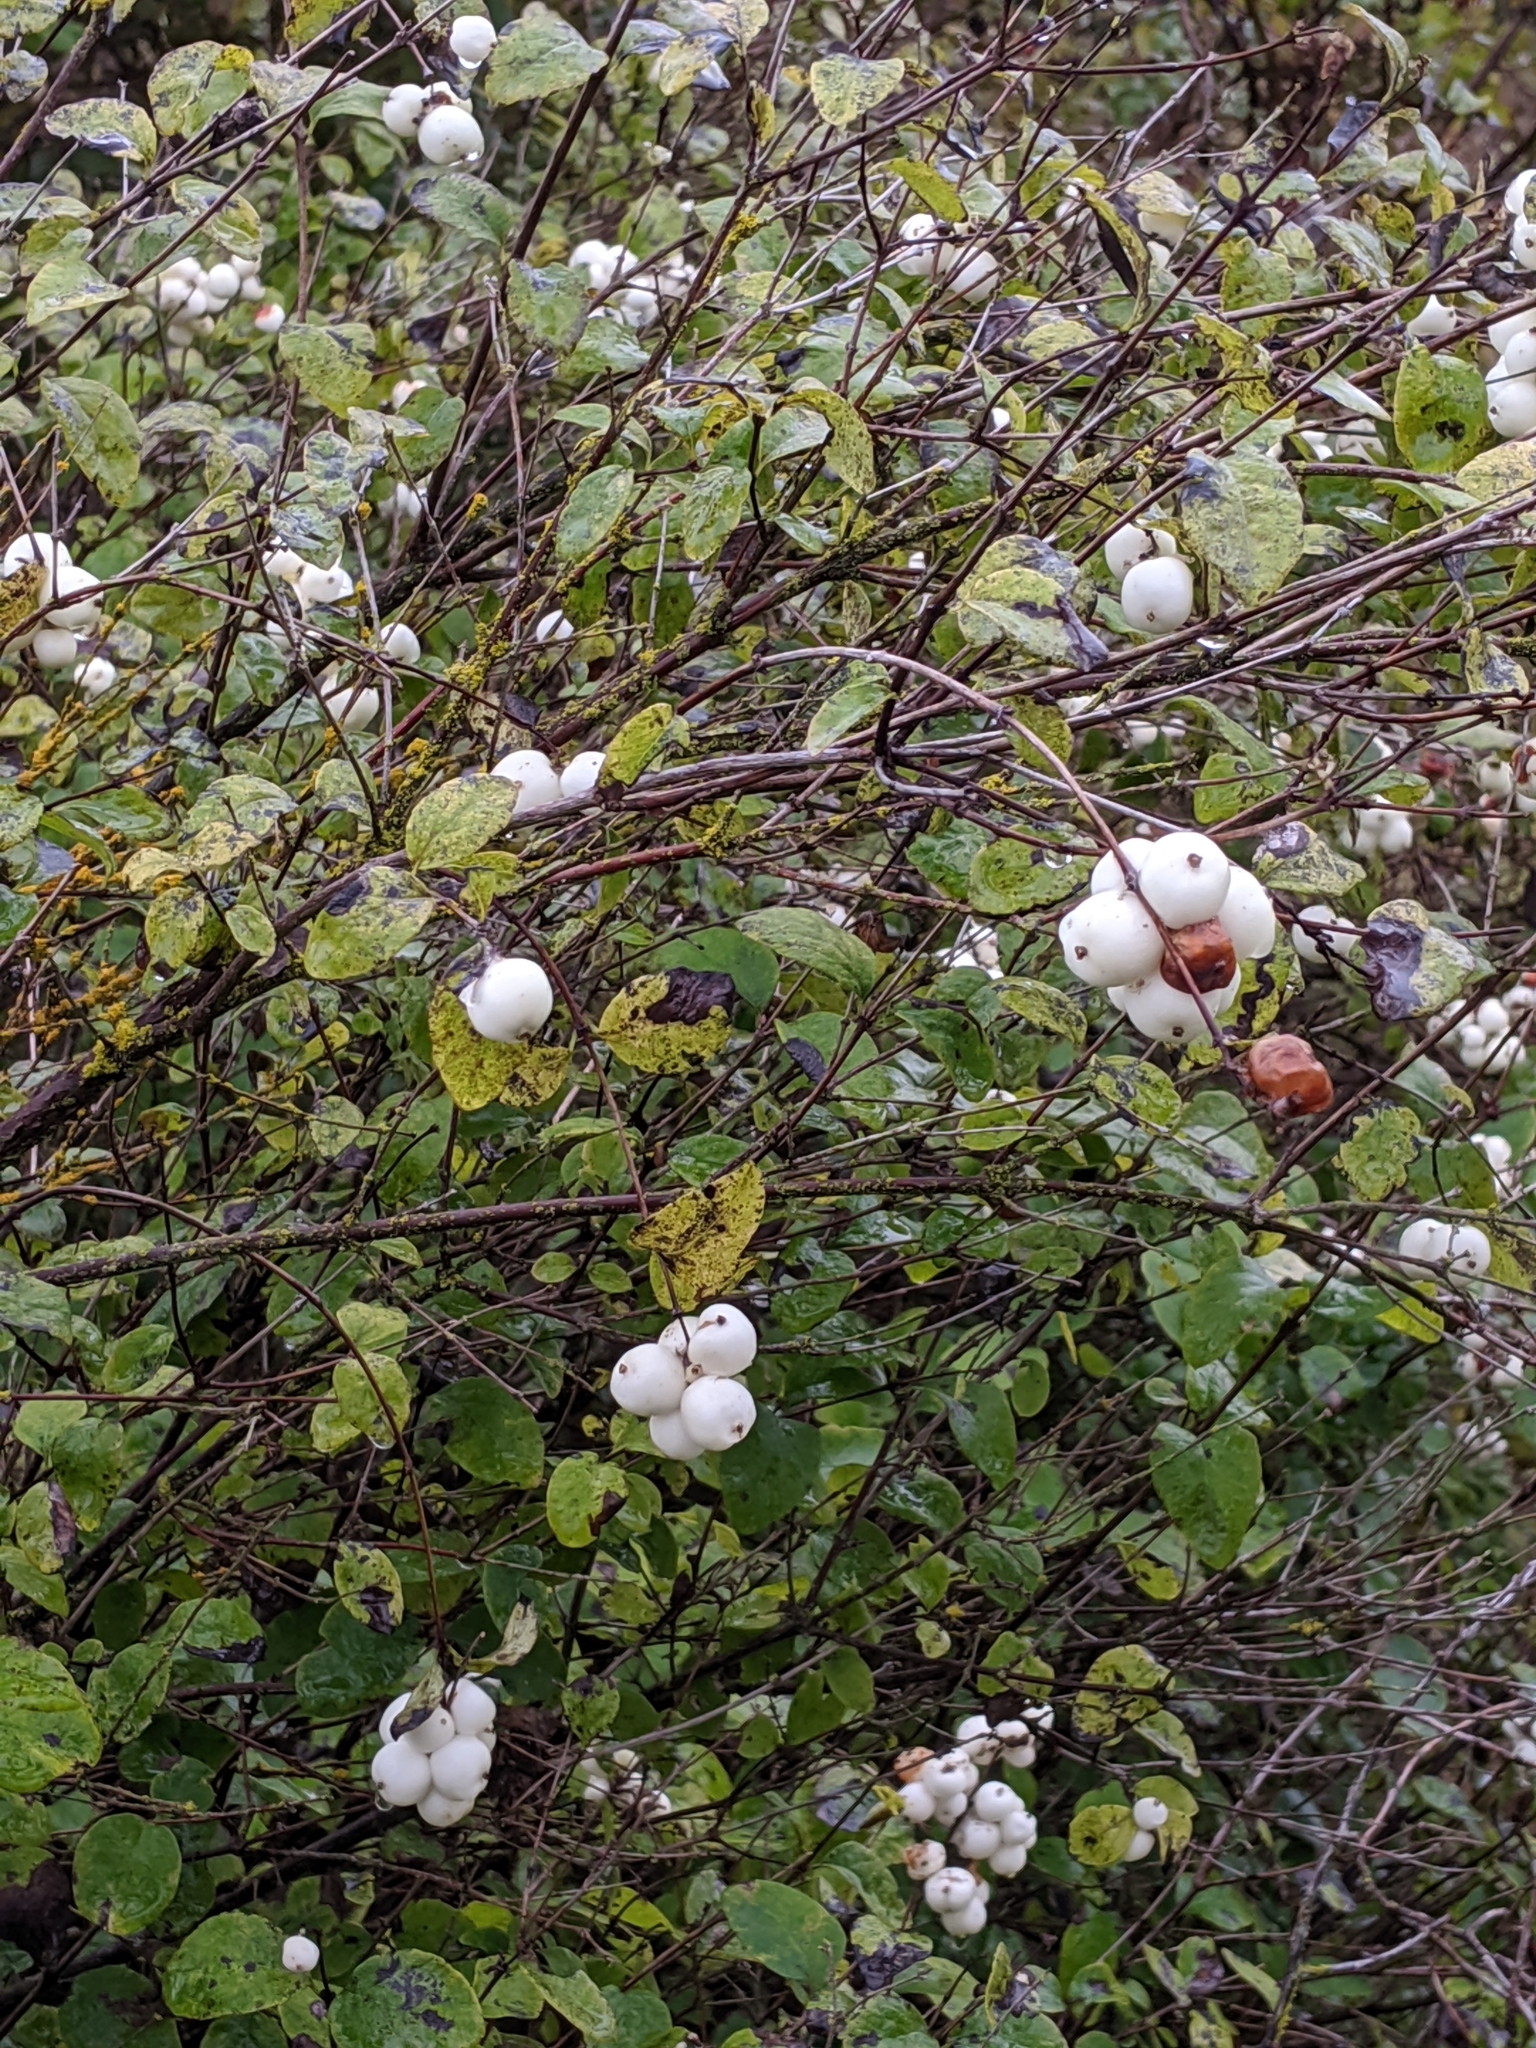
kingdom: Plantae
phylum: Tracheophyta
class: Magnoliopsida
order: Dipsacales
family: Caprifoliaceae
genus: Symphoricarpos
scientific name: Symphoricarpos albus
